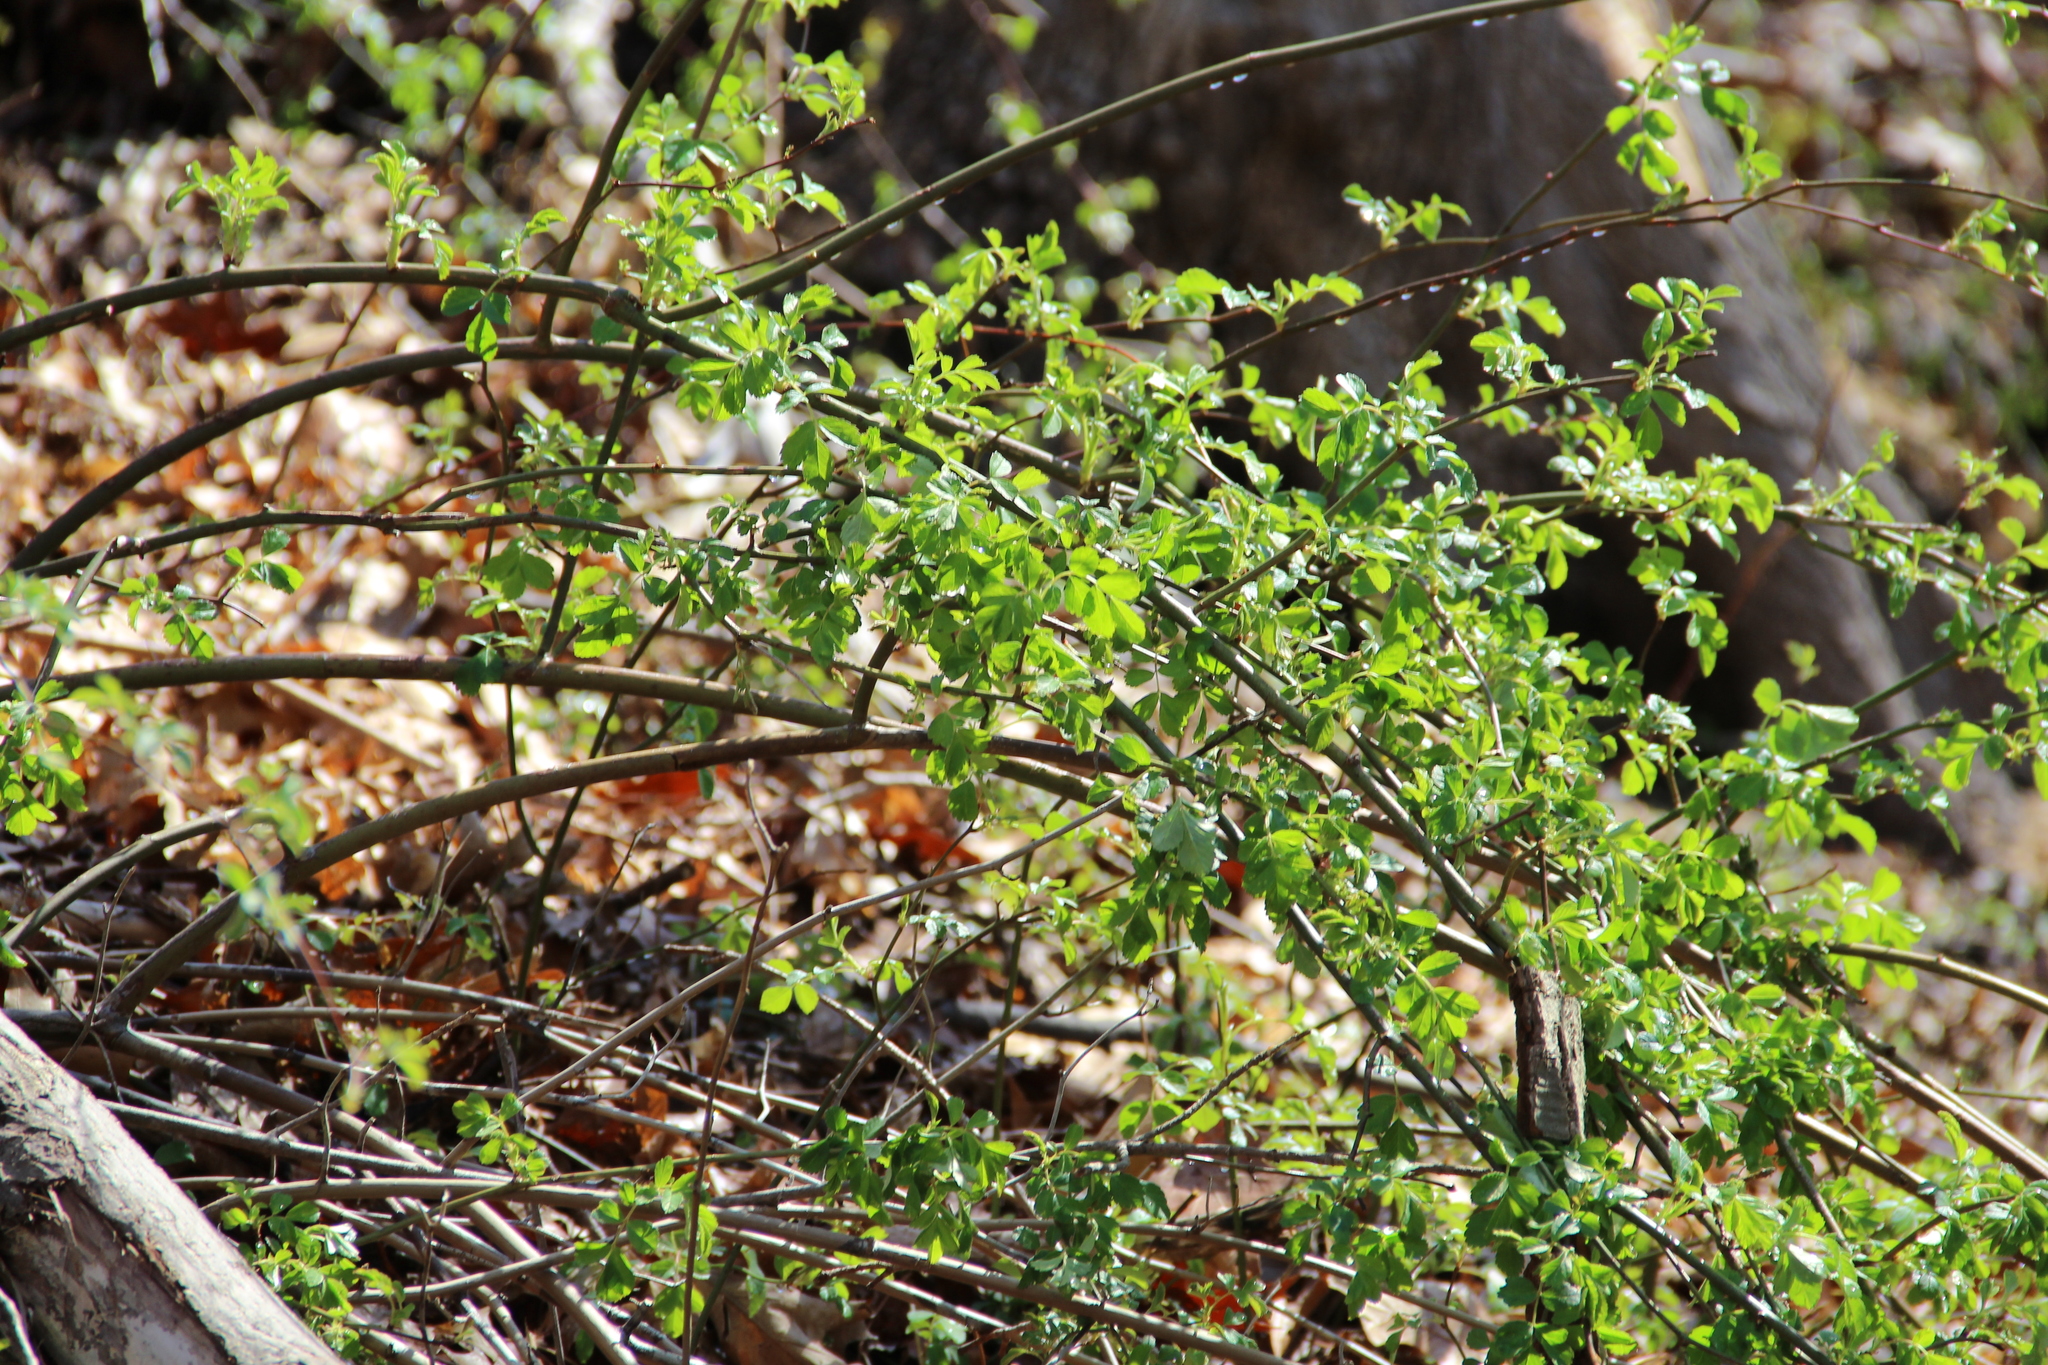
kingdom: Plantae
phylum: Tracheophyta
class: Magnoliopsida
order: Rosales
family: Rosaceae
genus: Rosa
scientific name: Rosa multiflora
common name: Multiflora rose
